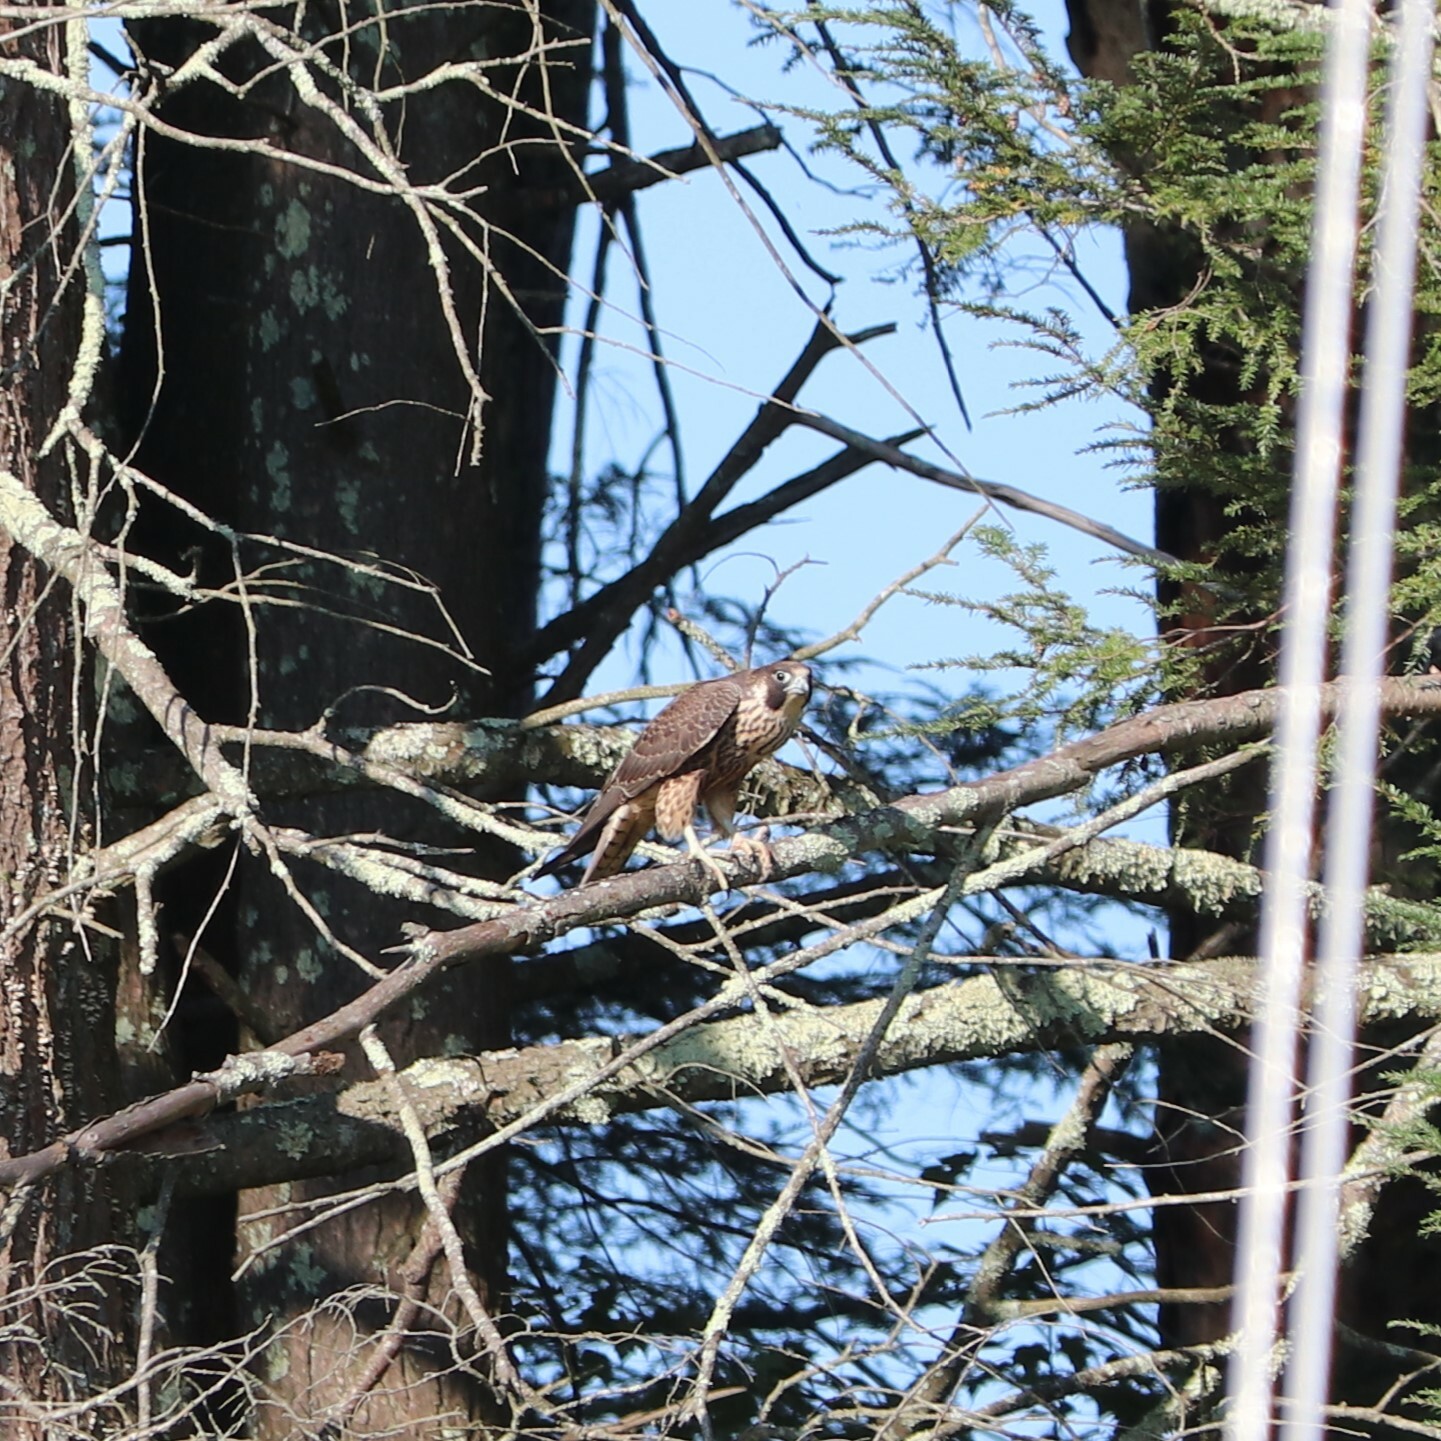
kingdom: Animalia
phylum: Chordata
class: Aves
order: Falconiformes
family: Falconidae
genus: Falco
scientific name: Falco peregrinus
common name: Peregrine falcon
